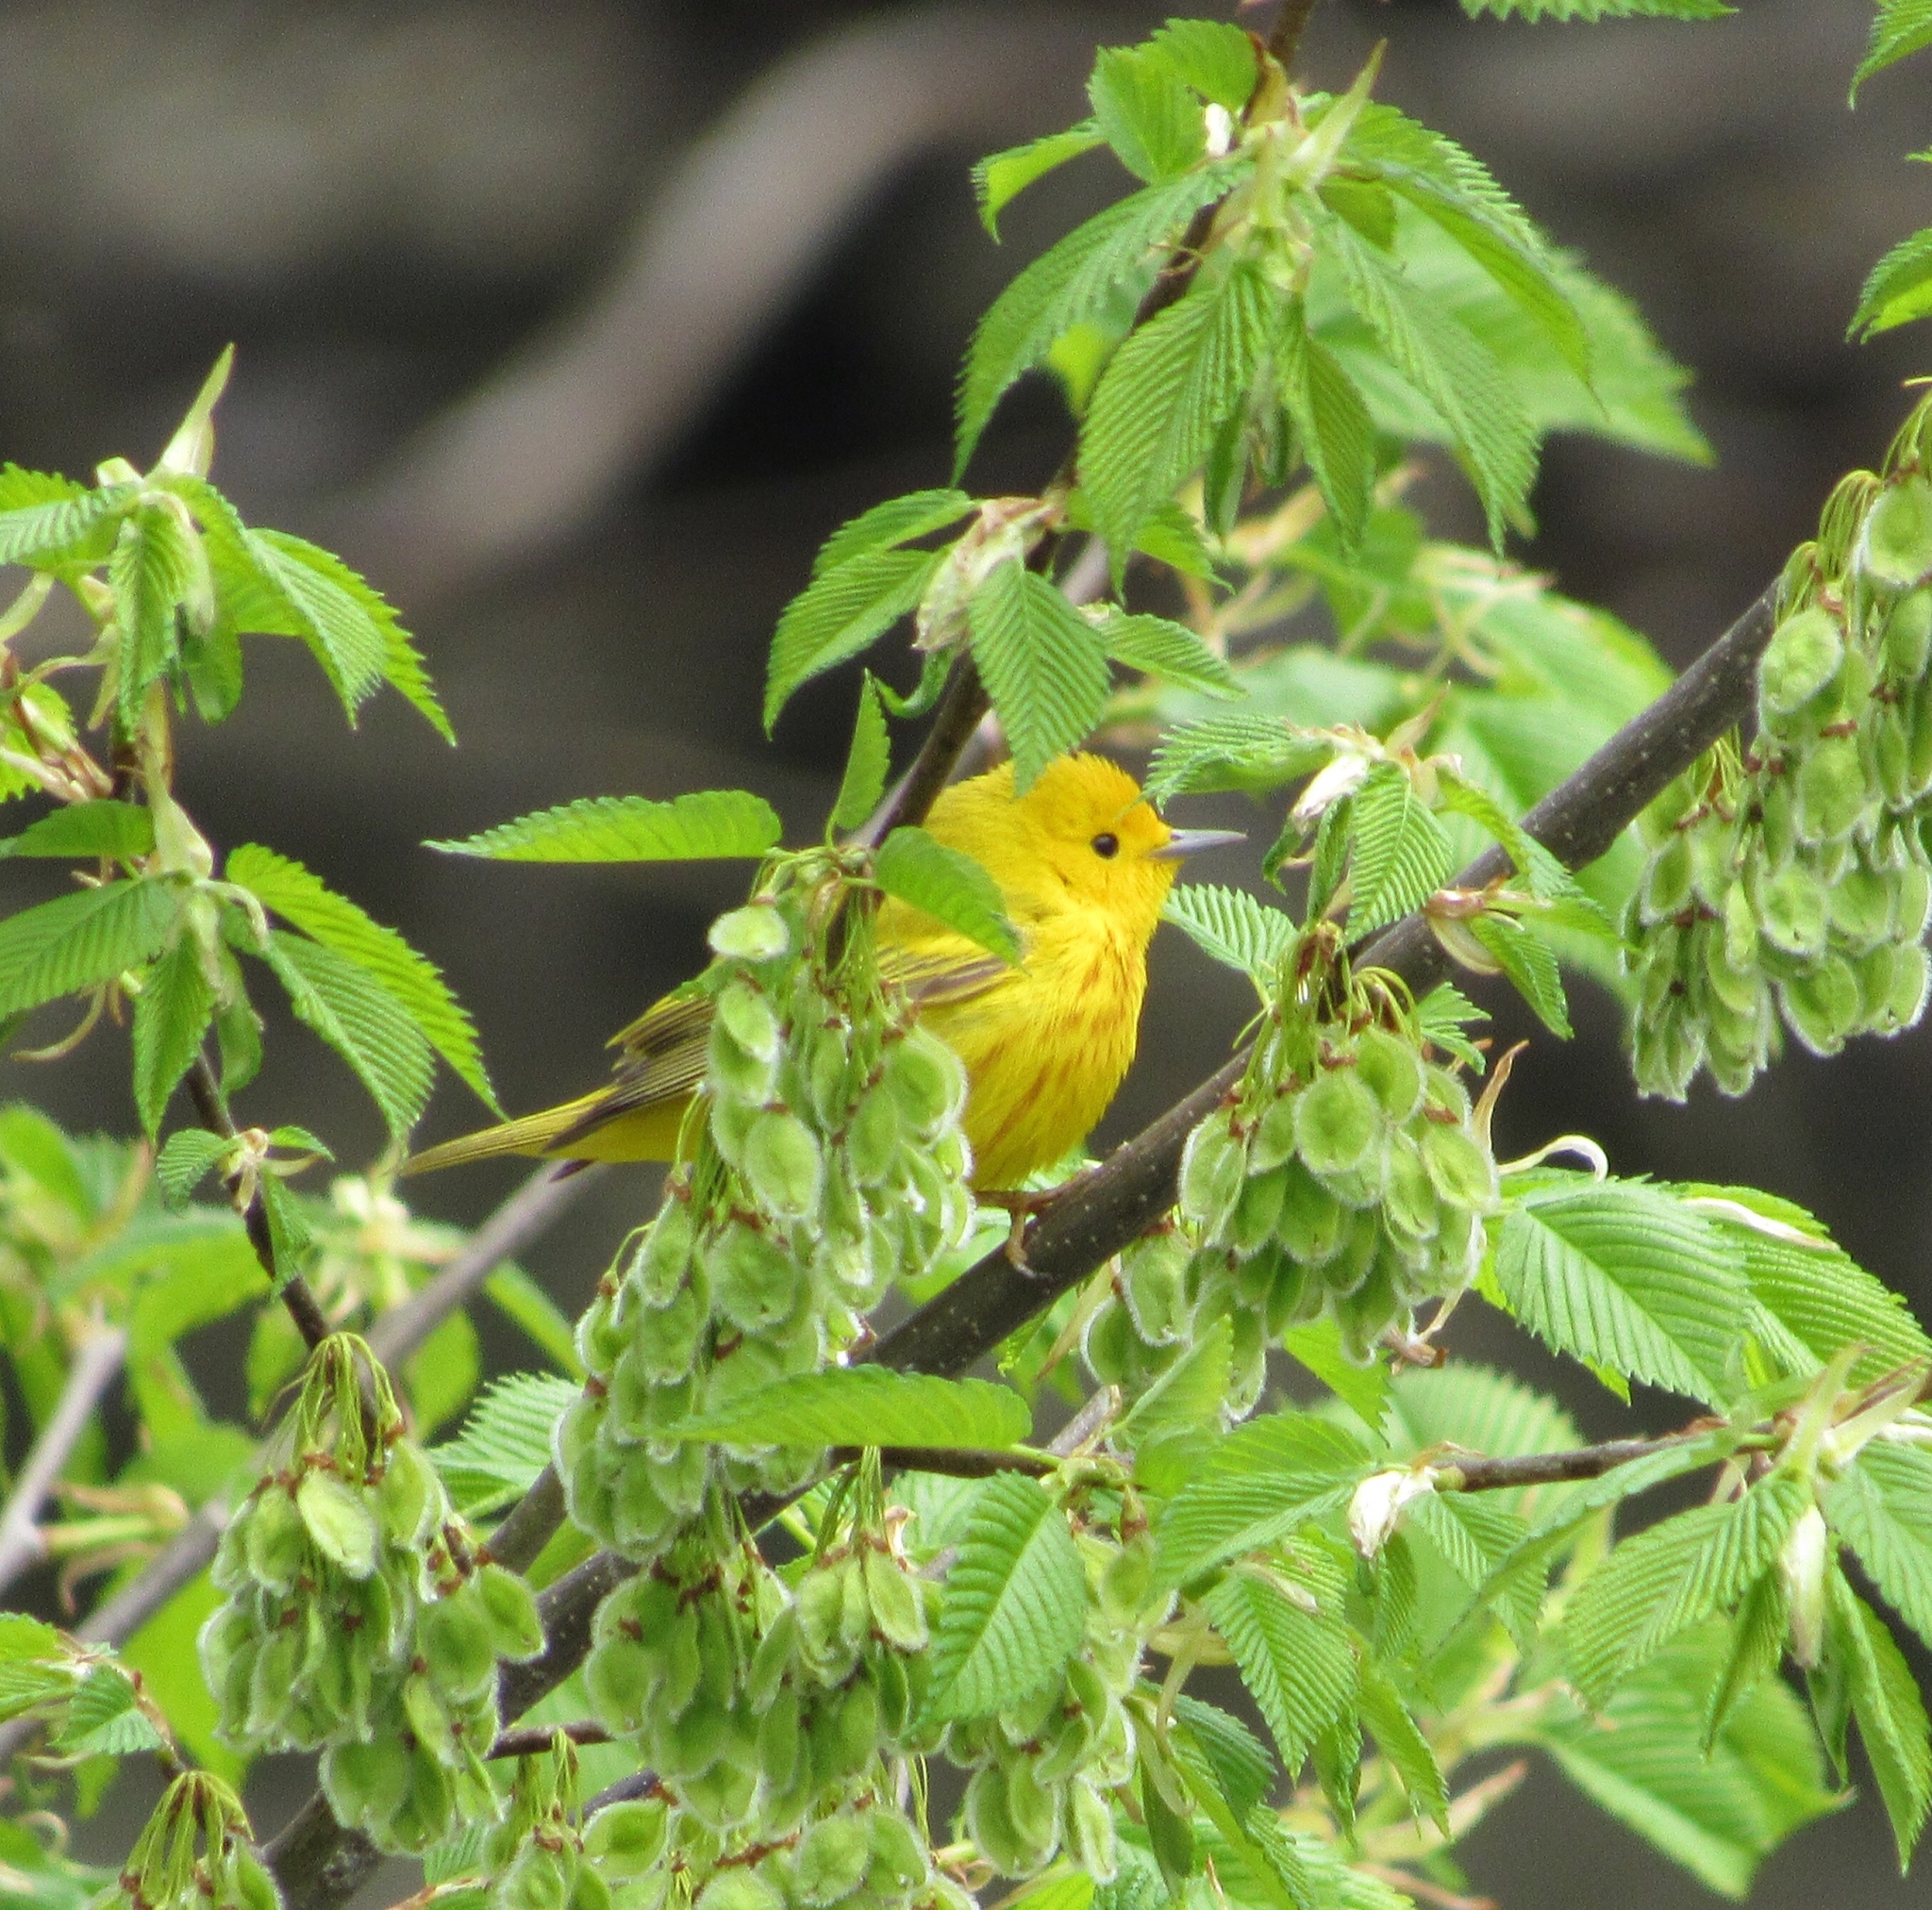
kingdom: Animalia
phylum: Chordata
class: Aves
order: Passeriformes
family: Parulidae
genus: Setophaga
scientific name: Setophaga petechia
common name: Yellow warbler
